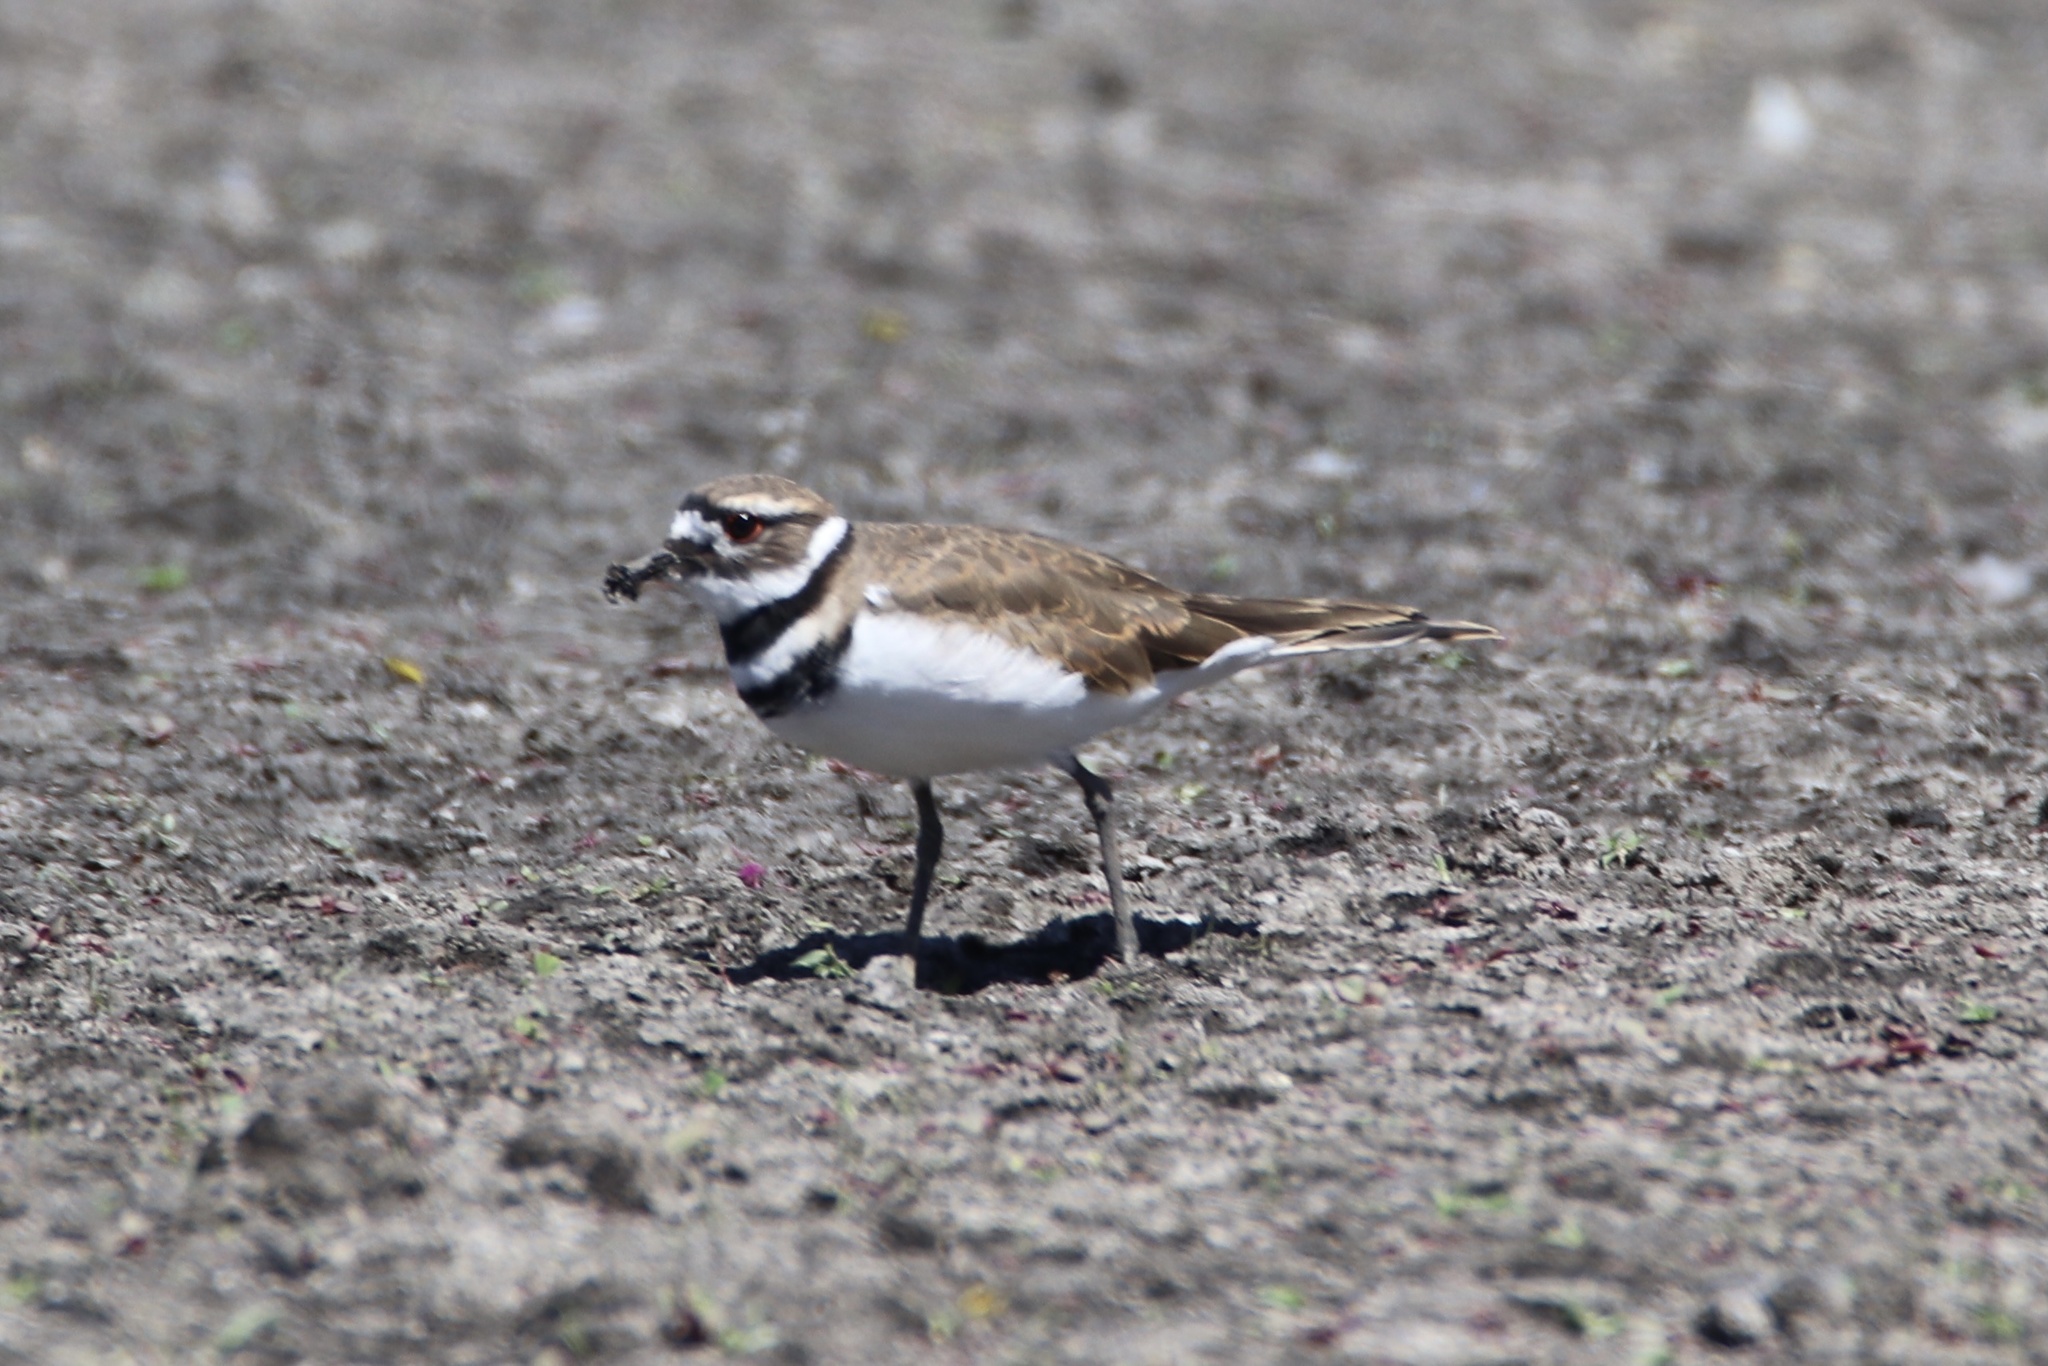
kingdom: Animalia
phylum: Chordata
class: Aves
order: Charadriiformes
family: Charadriidae
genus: Charadrius
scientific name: Charadrius vociferus
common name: Killdeer
